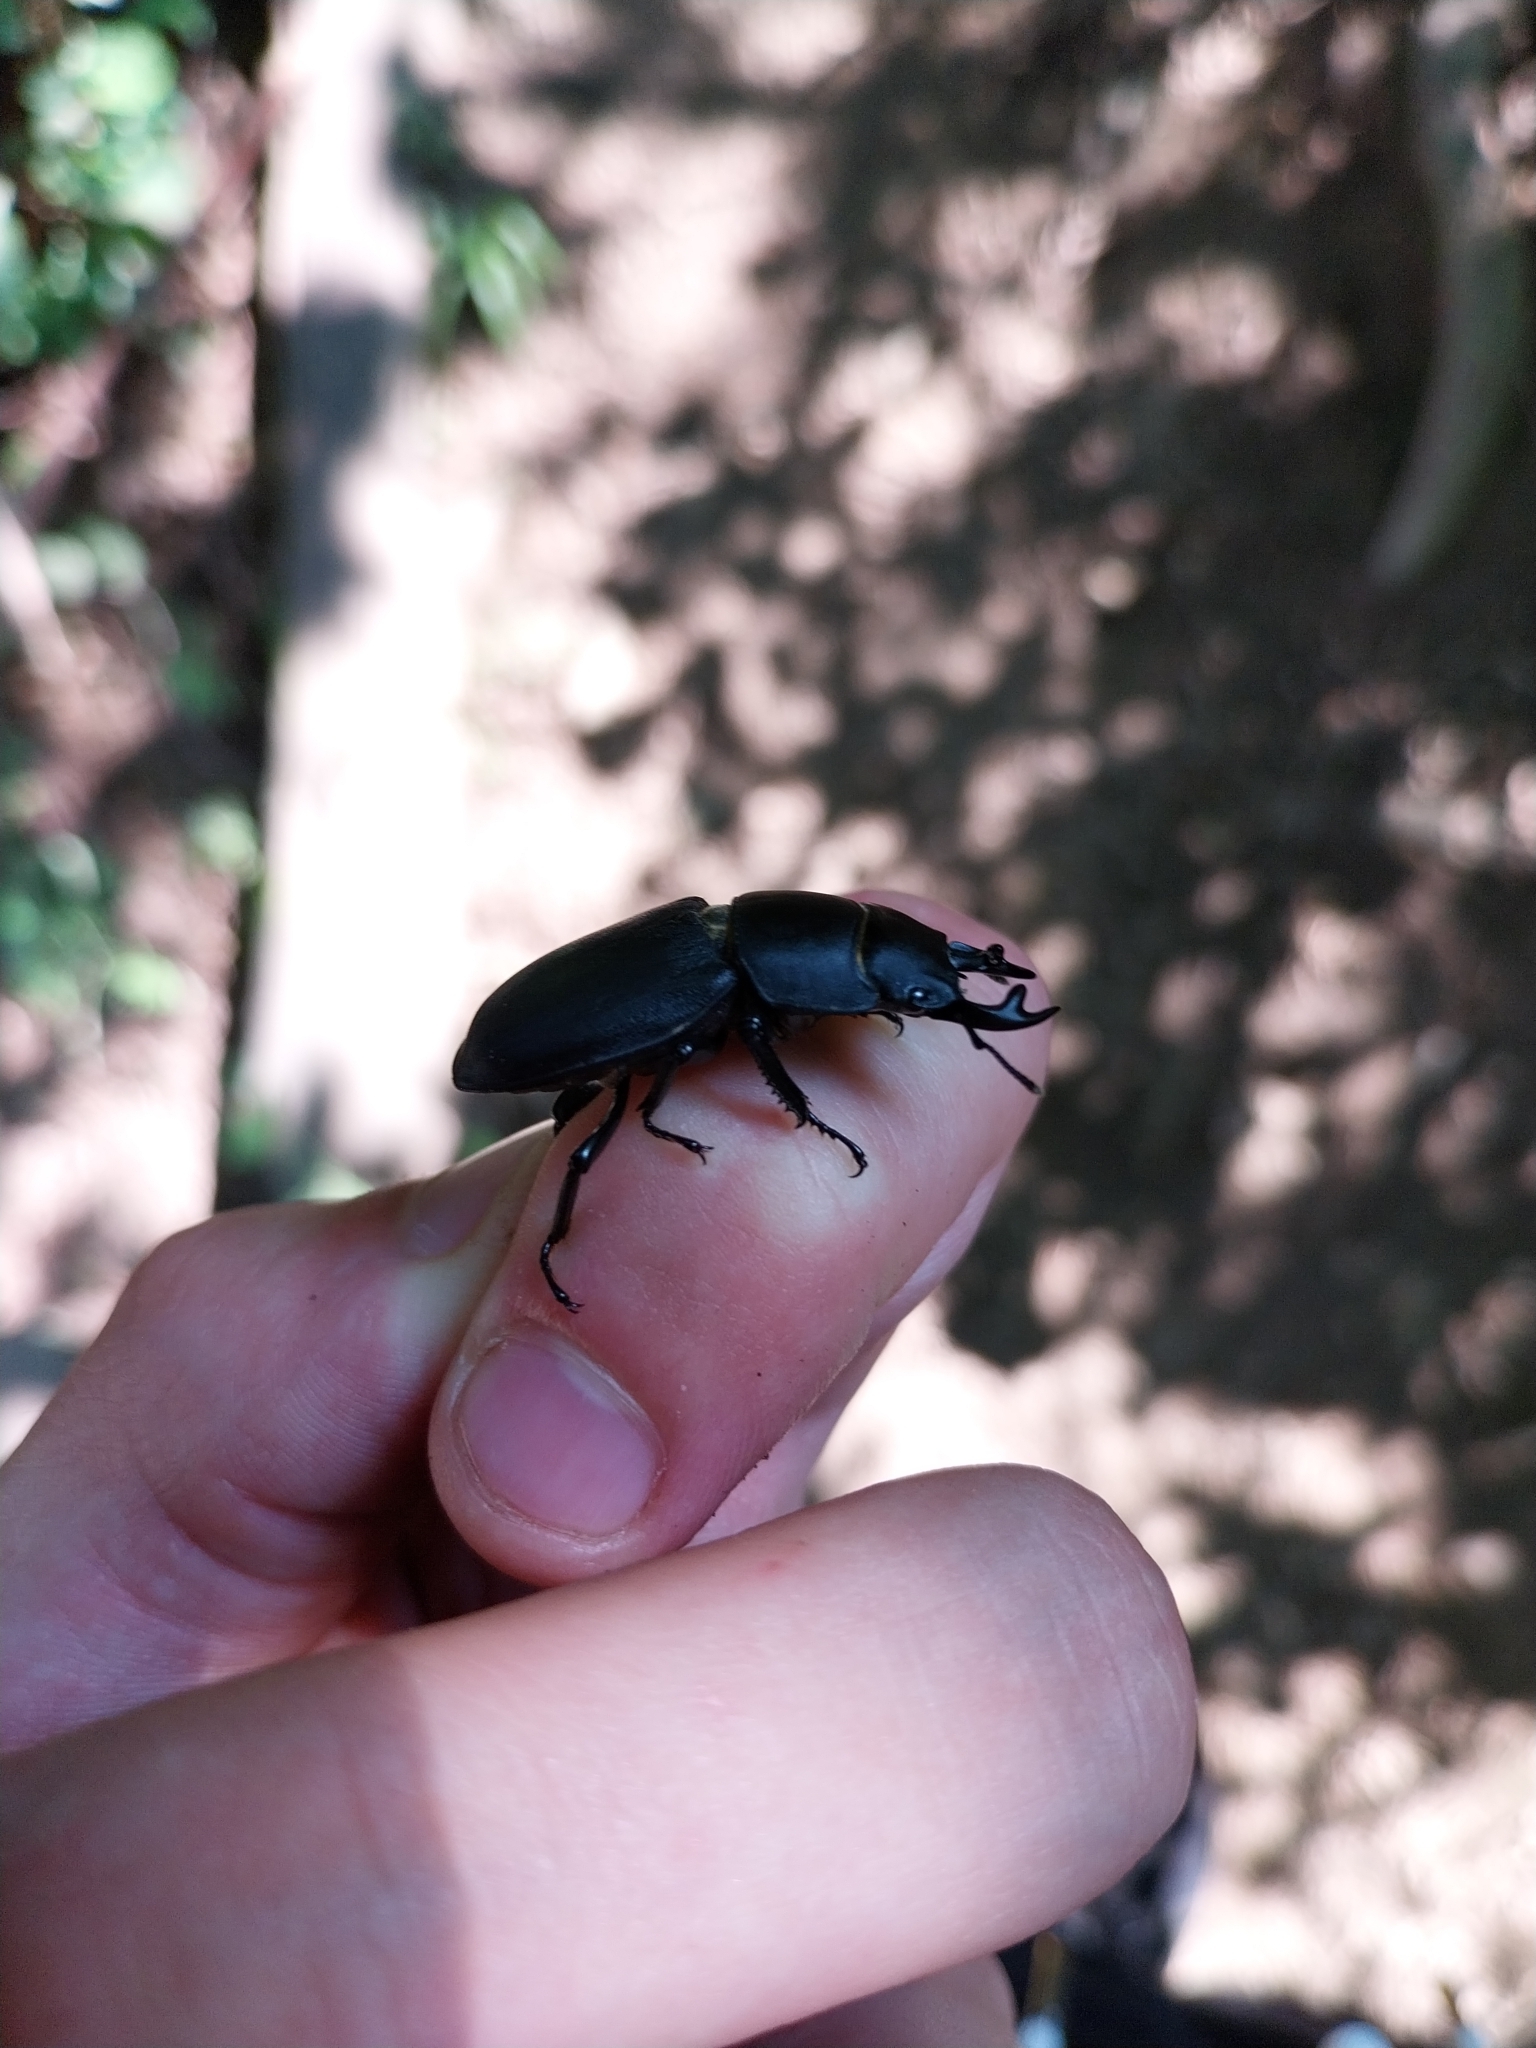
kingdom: Animalia
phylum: Arthropoda
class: Insecta
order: Coleoptera
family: Lucanidae
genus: Dorcus
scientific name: Dorcus parallelipipedus
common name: Lesser stag beetle
